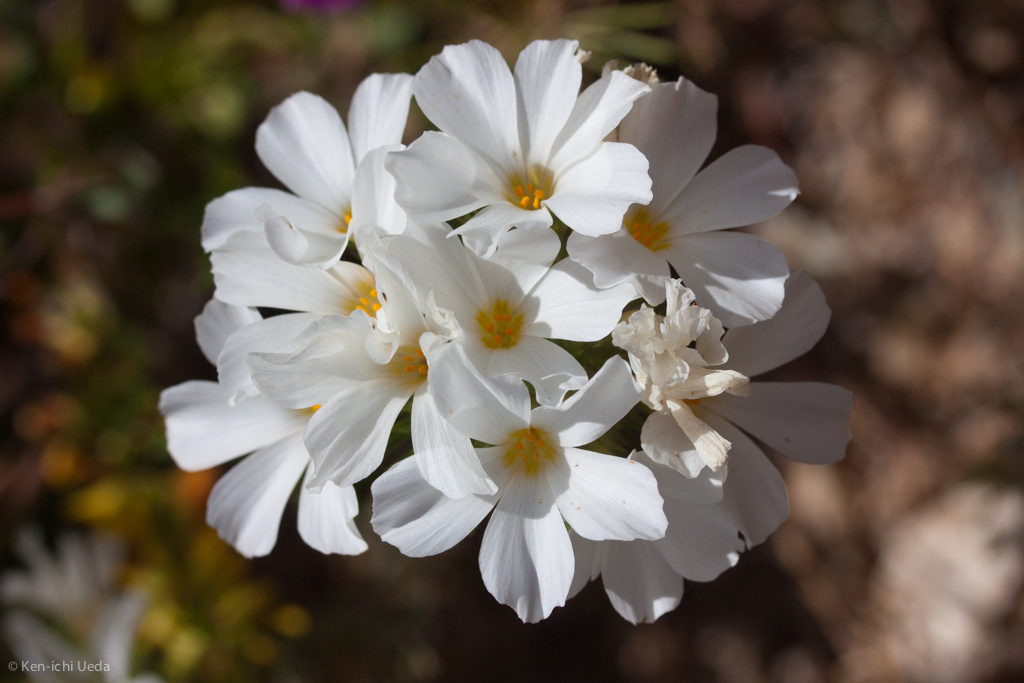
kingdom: Plantae
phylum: Tracheophyta
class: Magnoliopsida
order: Ericales
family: Polemoniaceae
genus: Leptosiphon
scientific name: Leptosiphon grandiflorus
